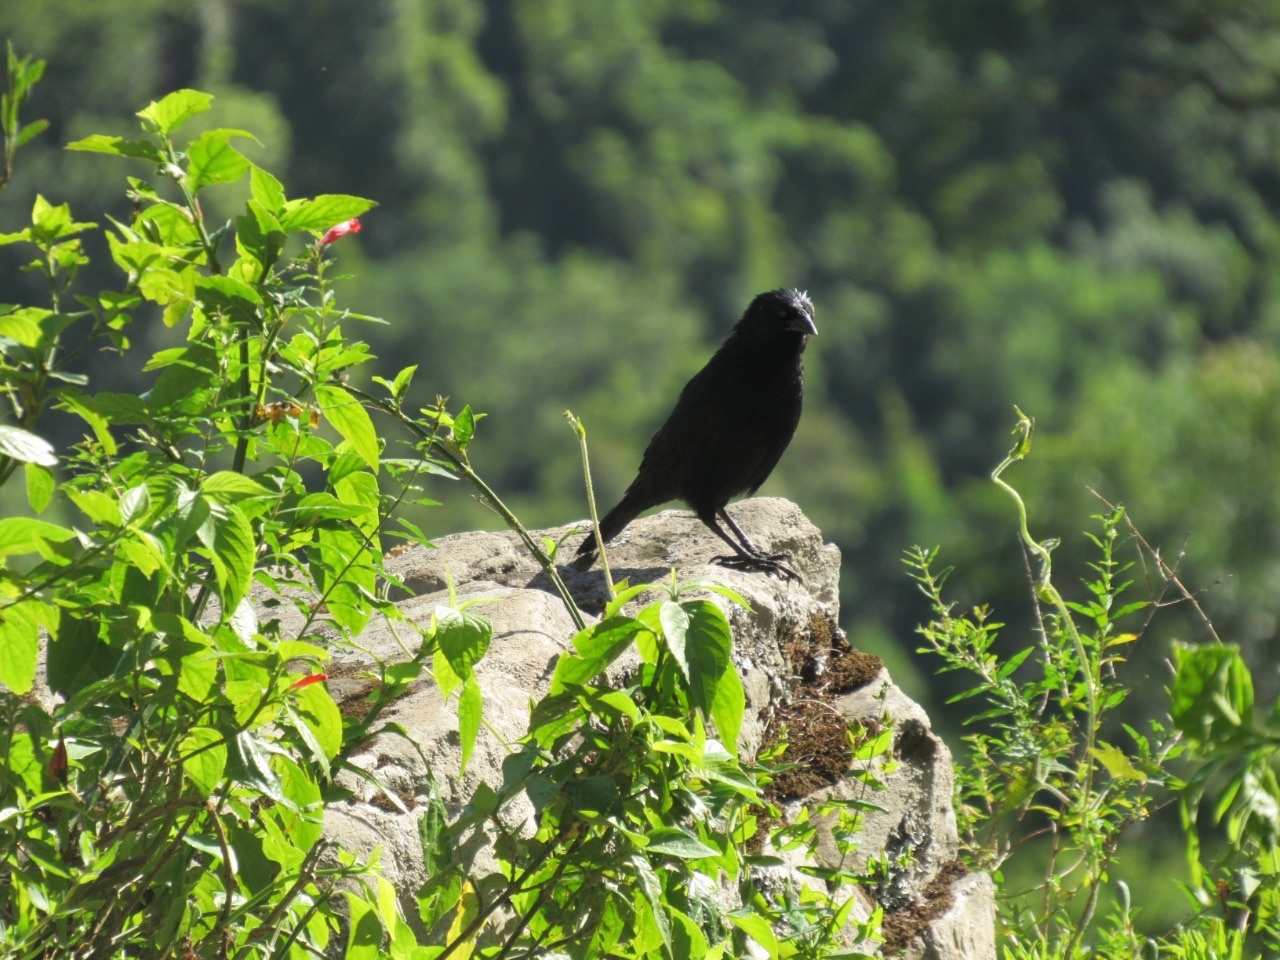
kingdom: Animalia
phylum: Chordata
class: Aves
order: Passeriformes
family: Icteridae
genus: Gnorimopsar
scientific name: Gnorimopsar chopi
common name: Chopi blackbird
